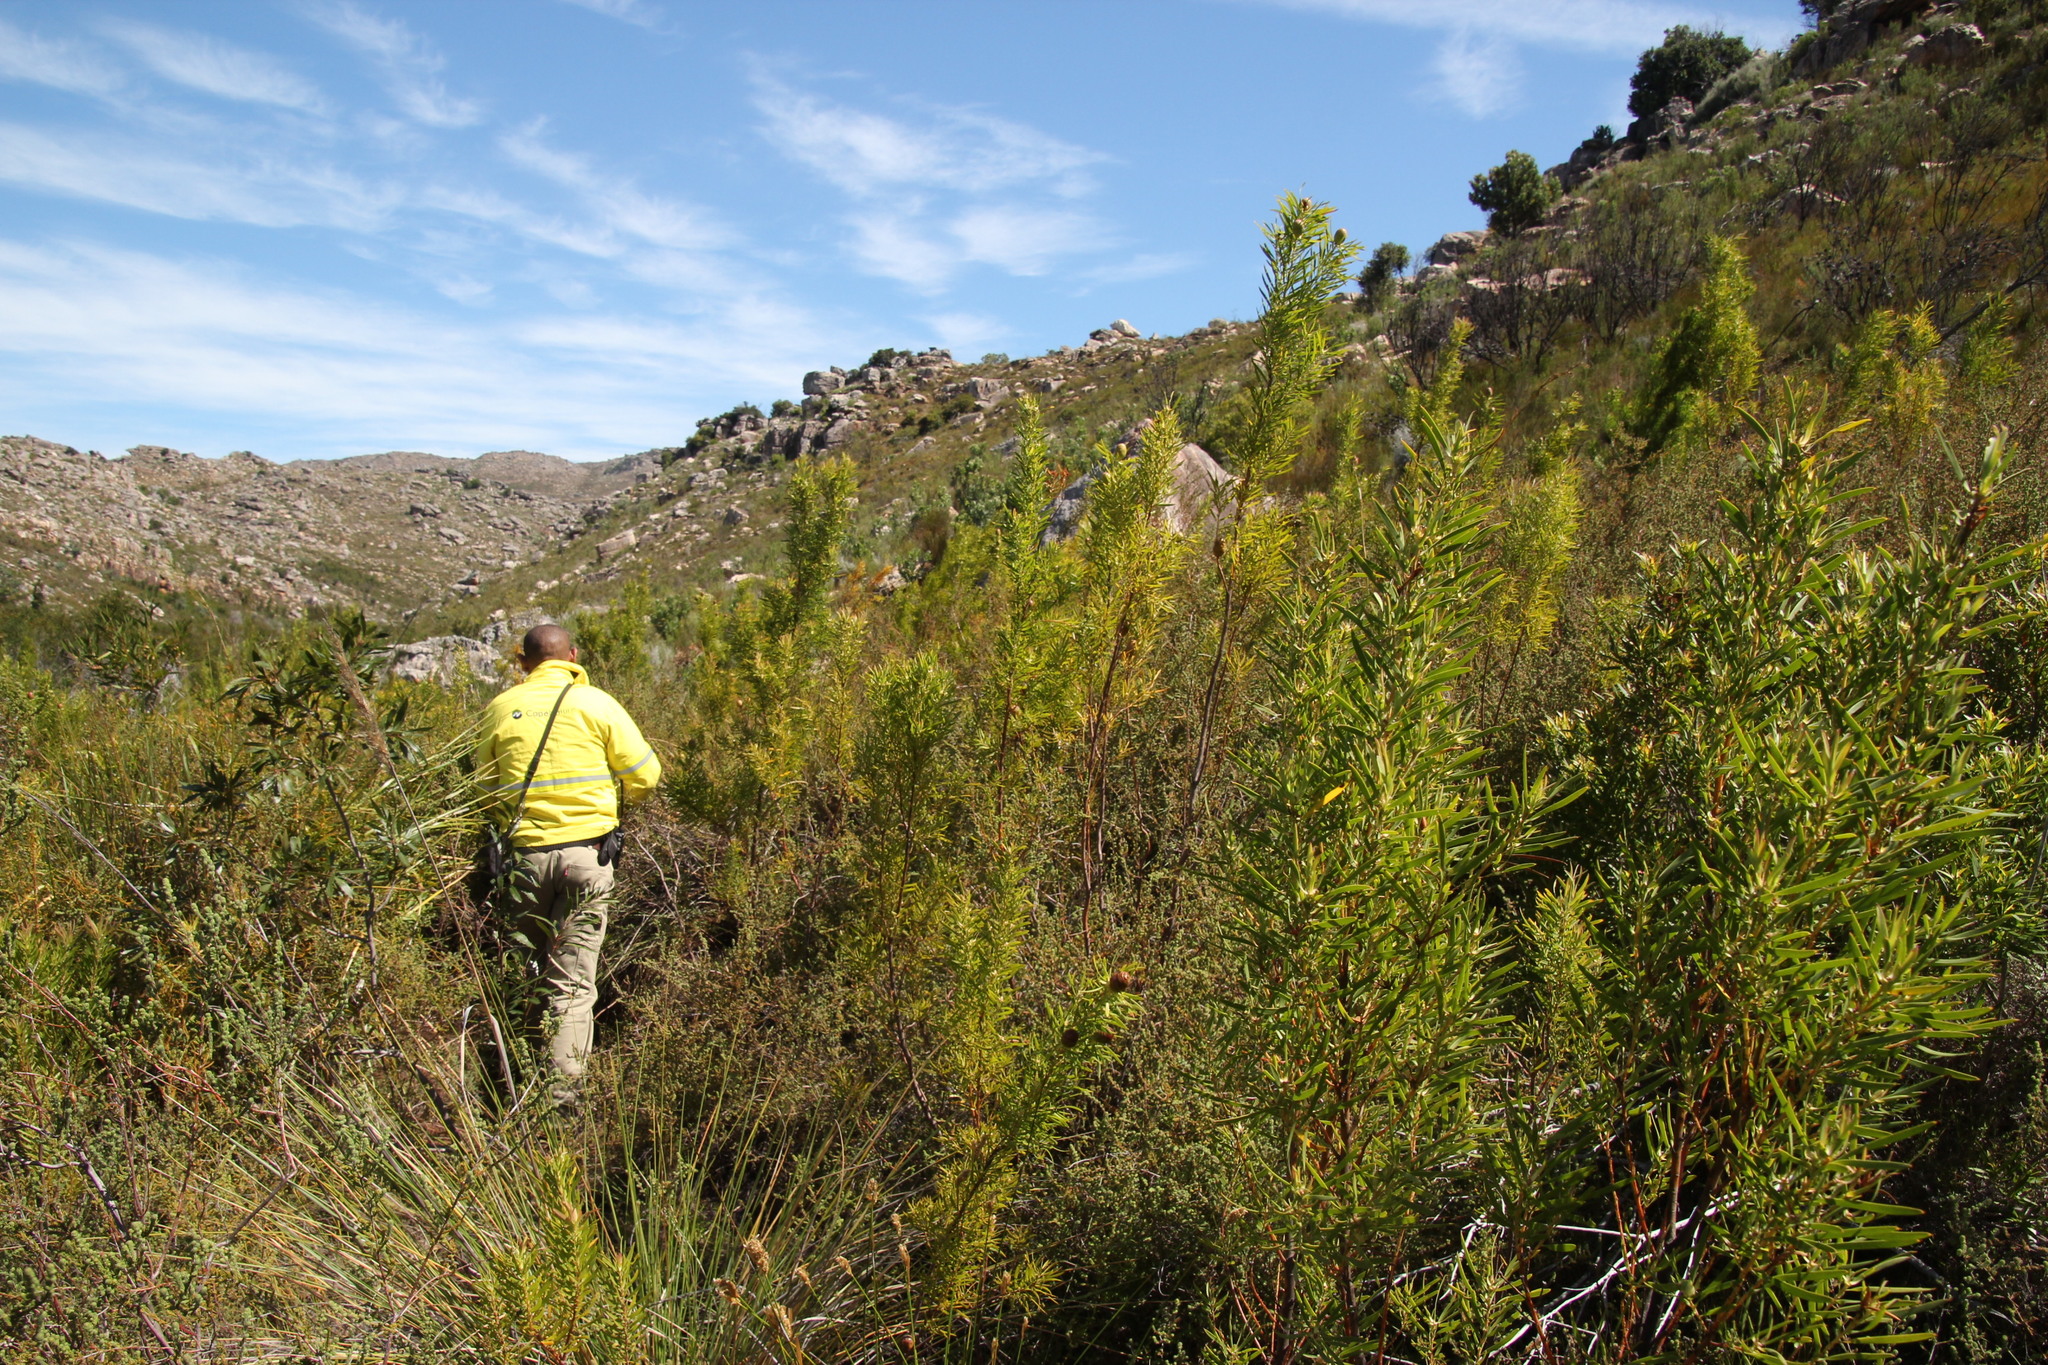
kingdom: Plantae
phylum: Tracheophyta
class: Magnoliopsida
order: Proteales
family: Proteaceae
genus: Leucadendron
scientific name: Leucadendron salicifolium
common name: Common stream conebush
